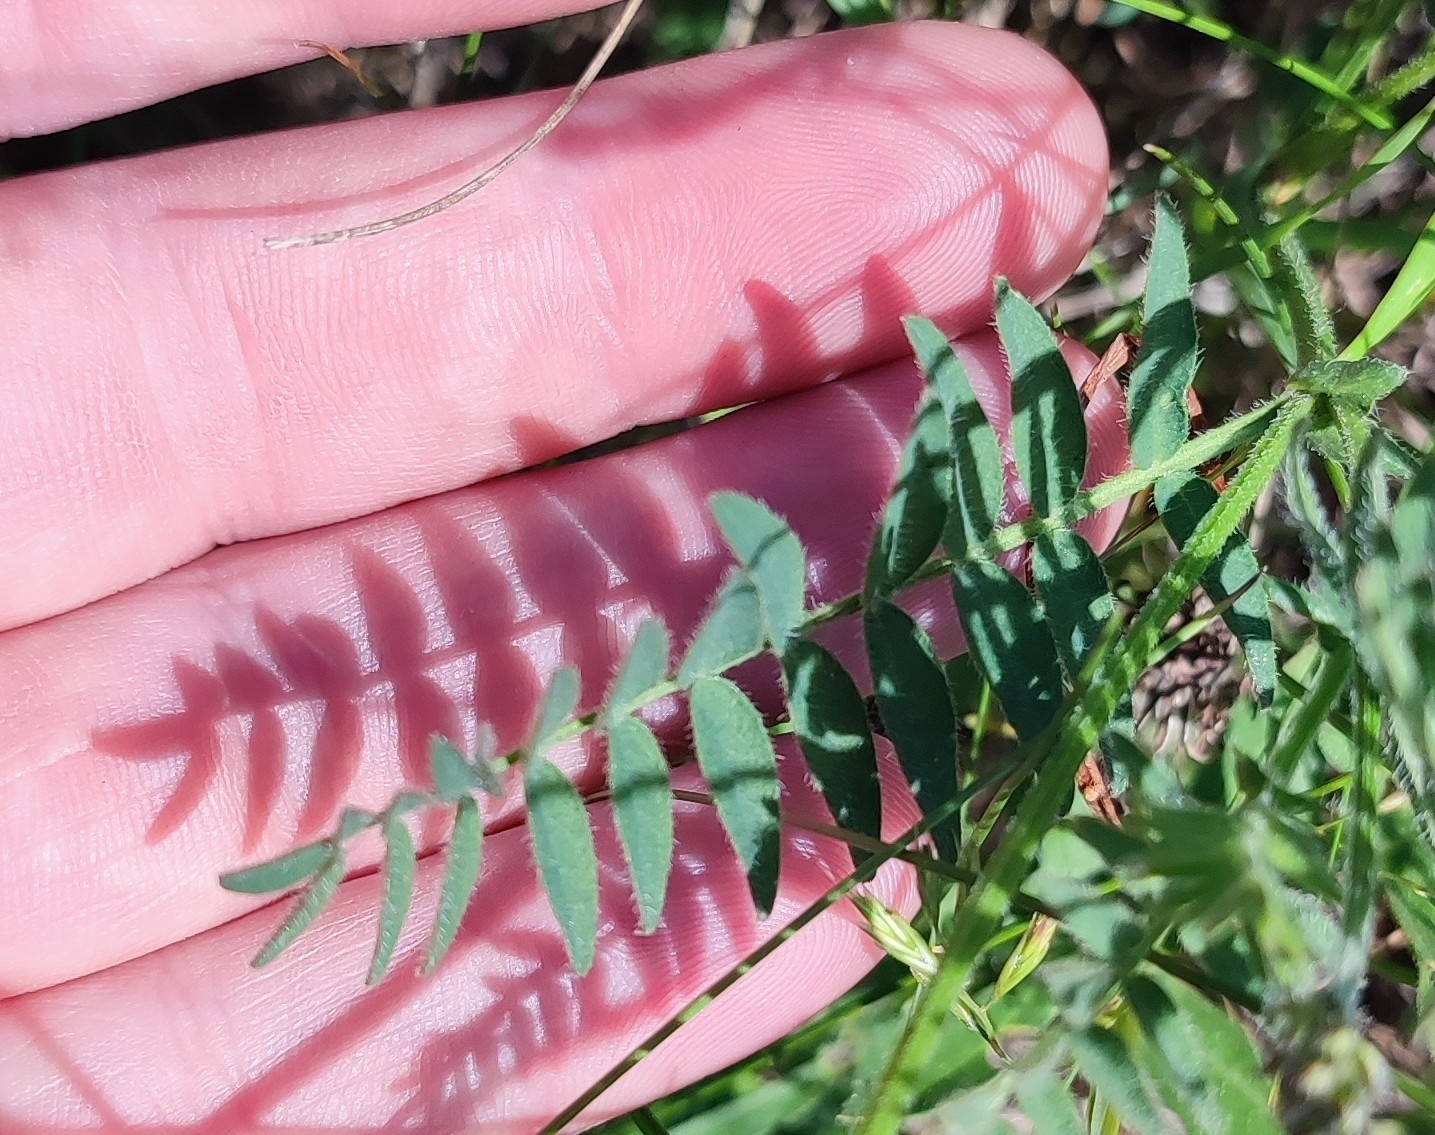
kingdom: Plantae
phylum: Tracheophyta
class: Magnoliopsida
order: Fabales
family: Fabaceae
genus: Astragalus
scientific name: Astragalus danicus
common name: Purple milk-vetch
